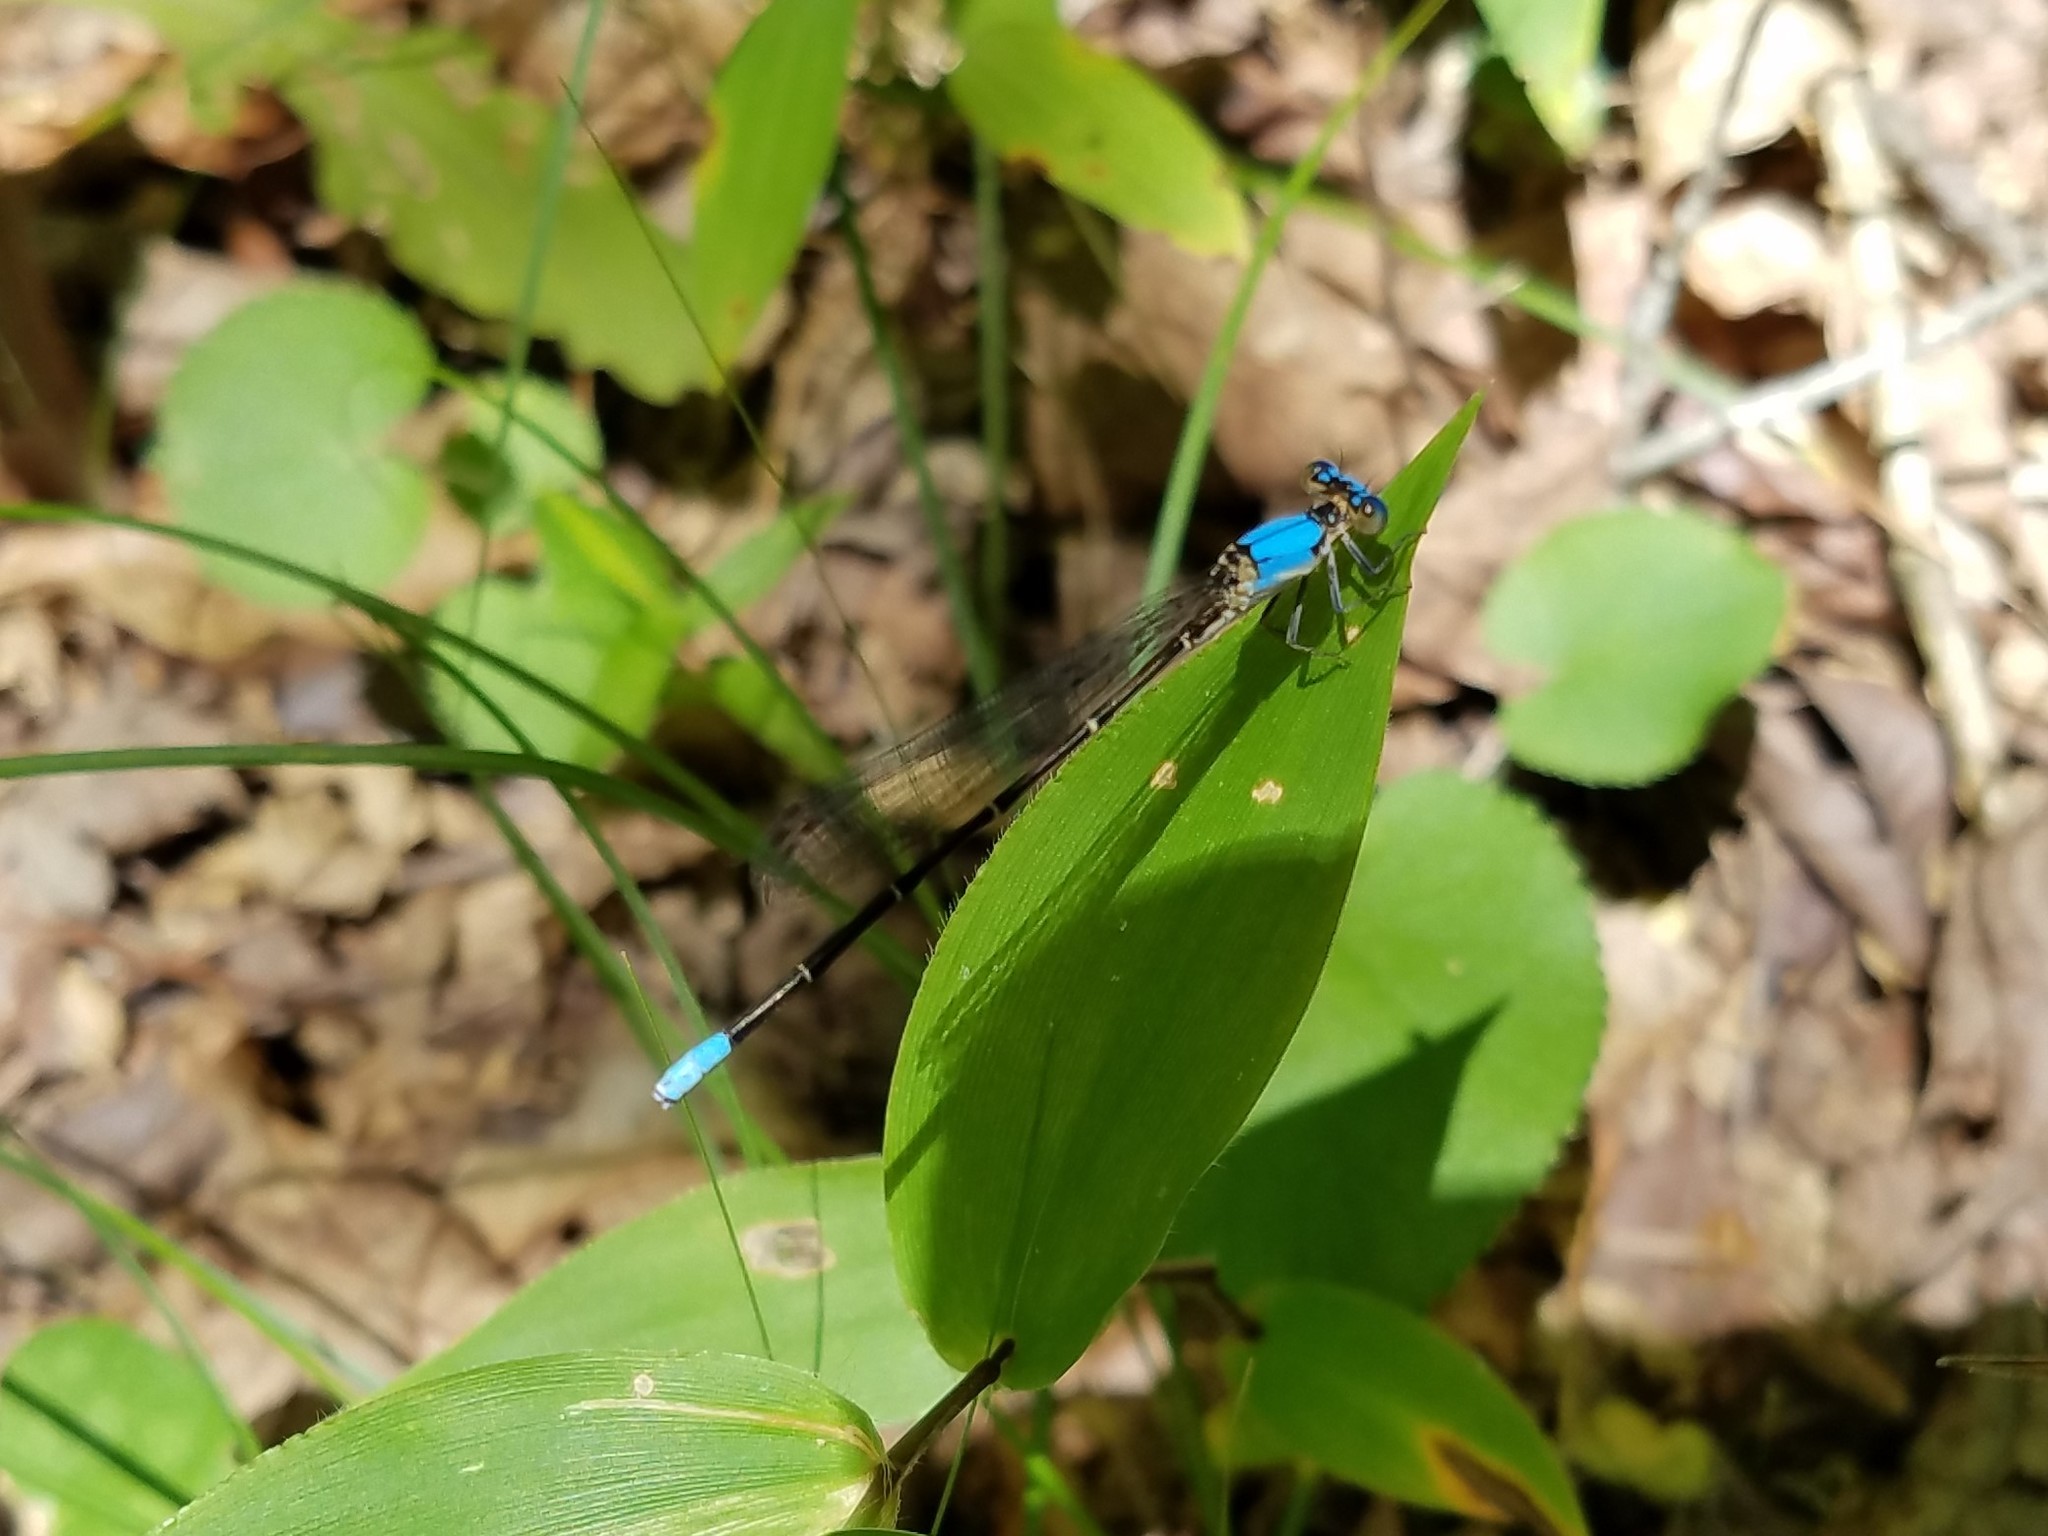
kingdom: Animalia
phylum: Arthropoda
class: Insecta
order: Odonata
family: Coenagrionidae
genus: Argia
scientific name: Argia apicalis
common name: Blue-fronted dancer
